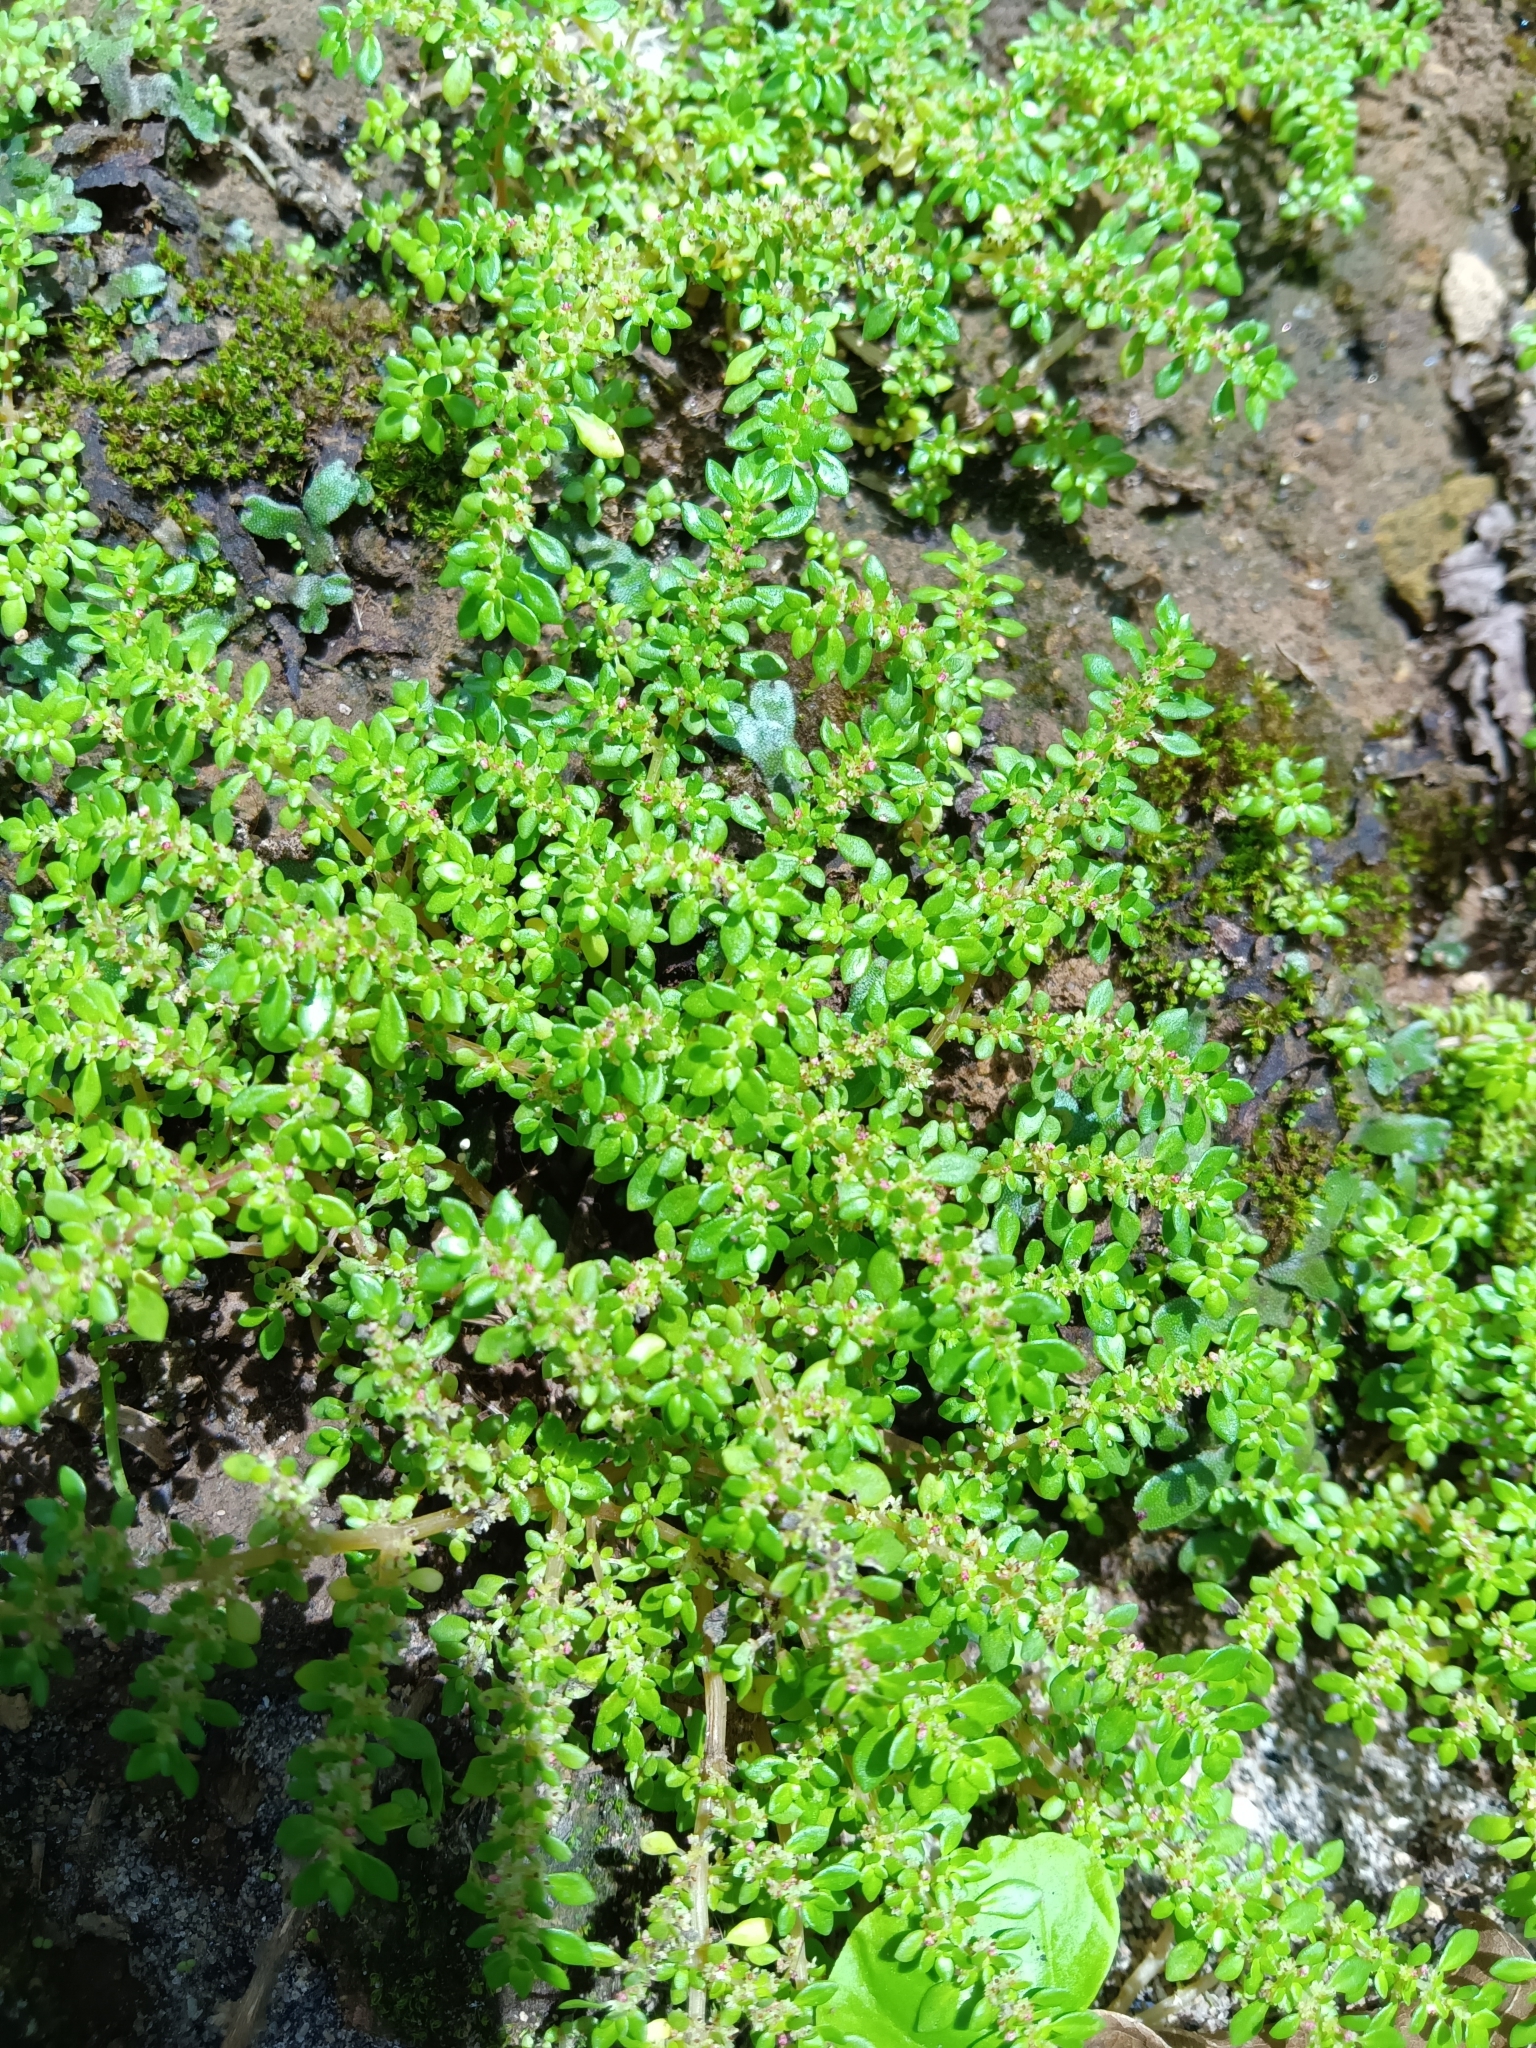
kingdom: Plantae
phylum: Tracheophyta
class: Magnoliopsida
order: Rosales
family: Urticaceae
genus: Pilea
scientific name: Pilea microphylla
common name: Artillery-plant
